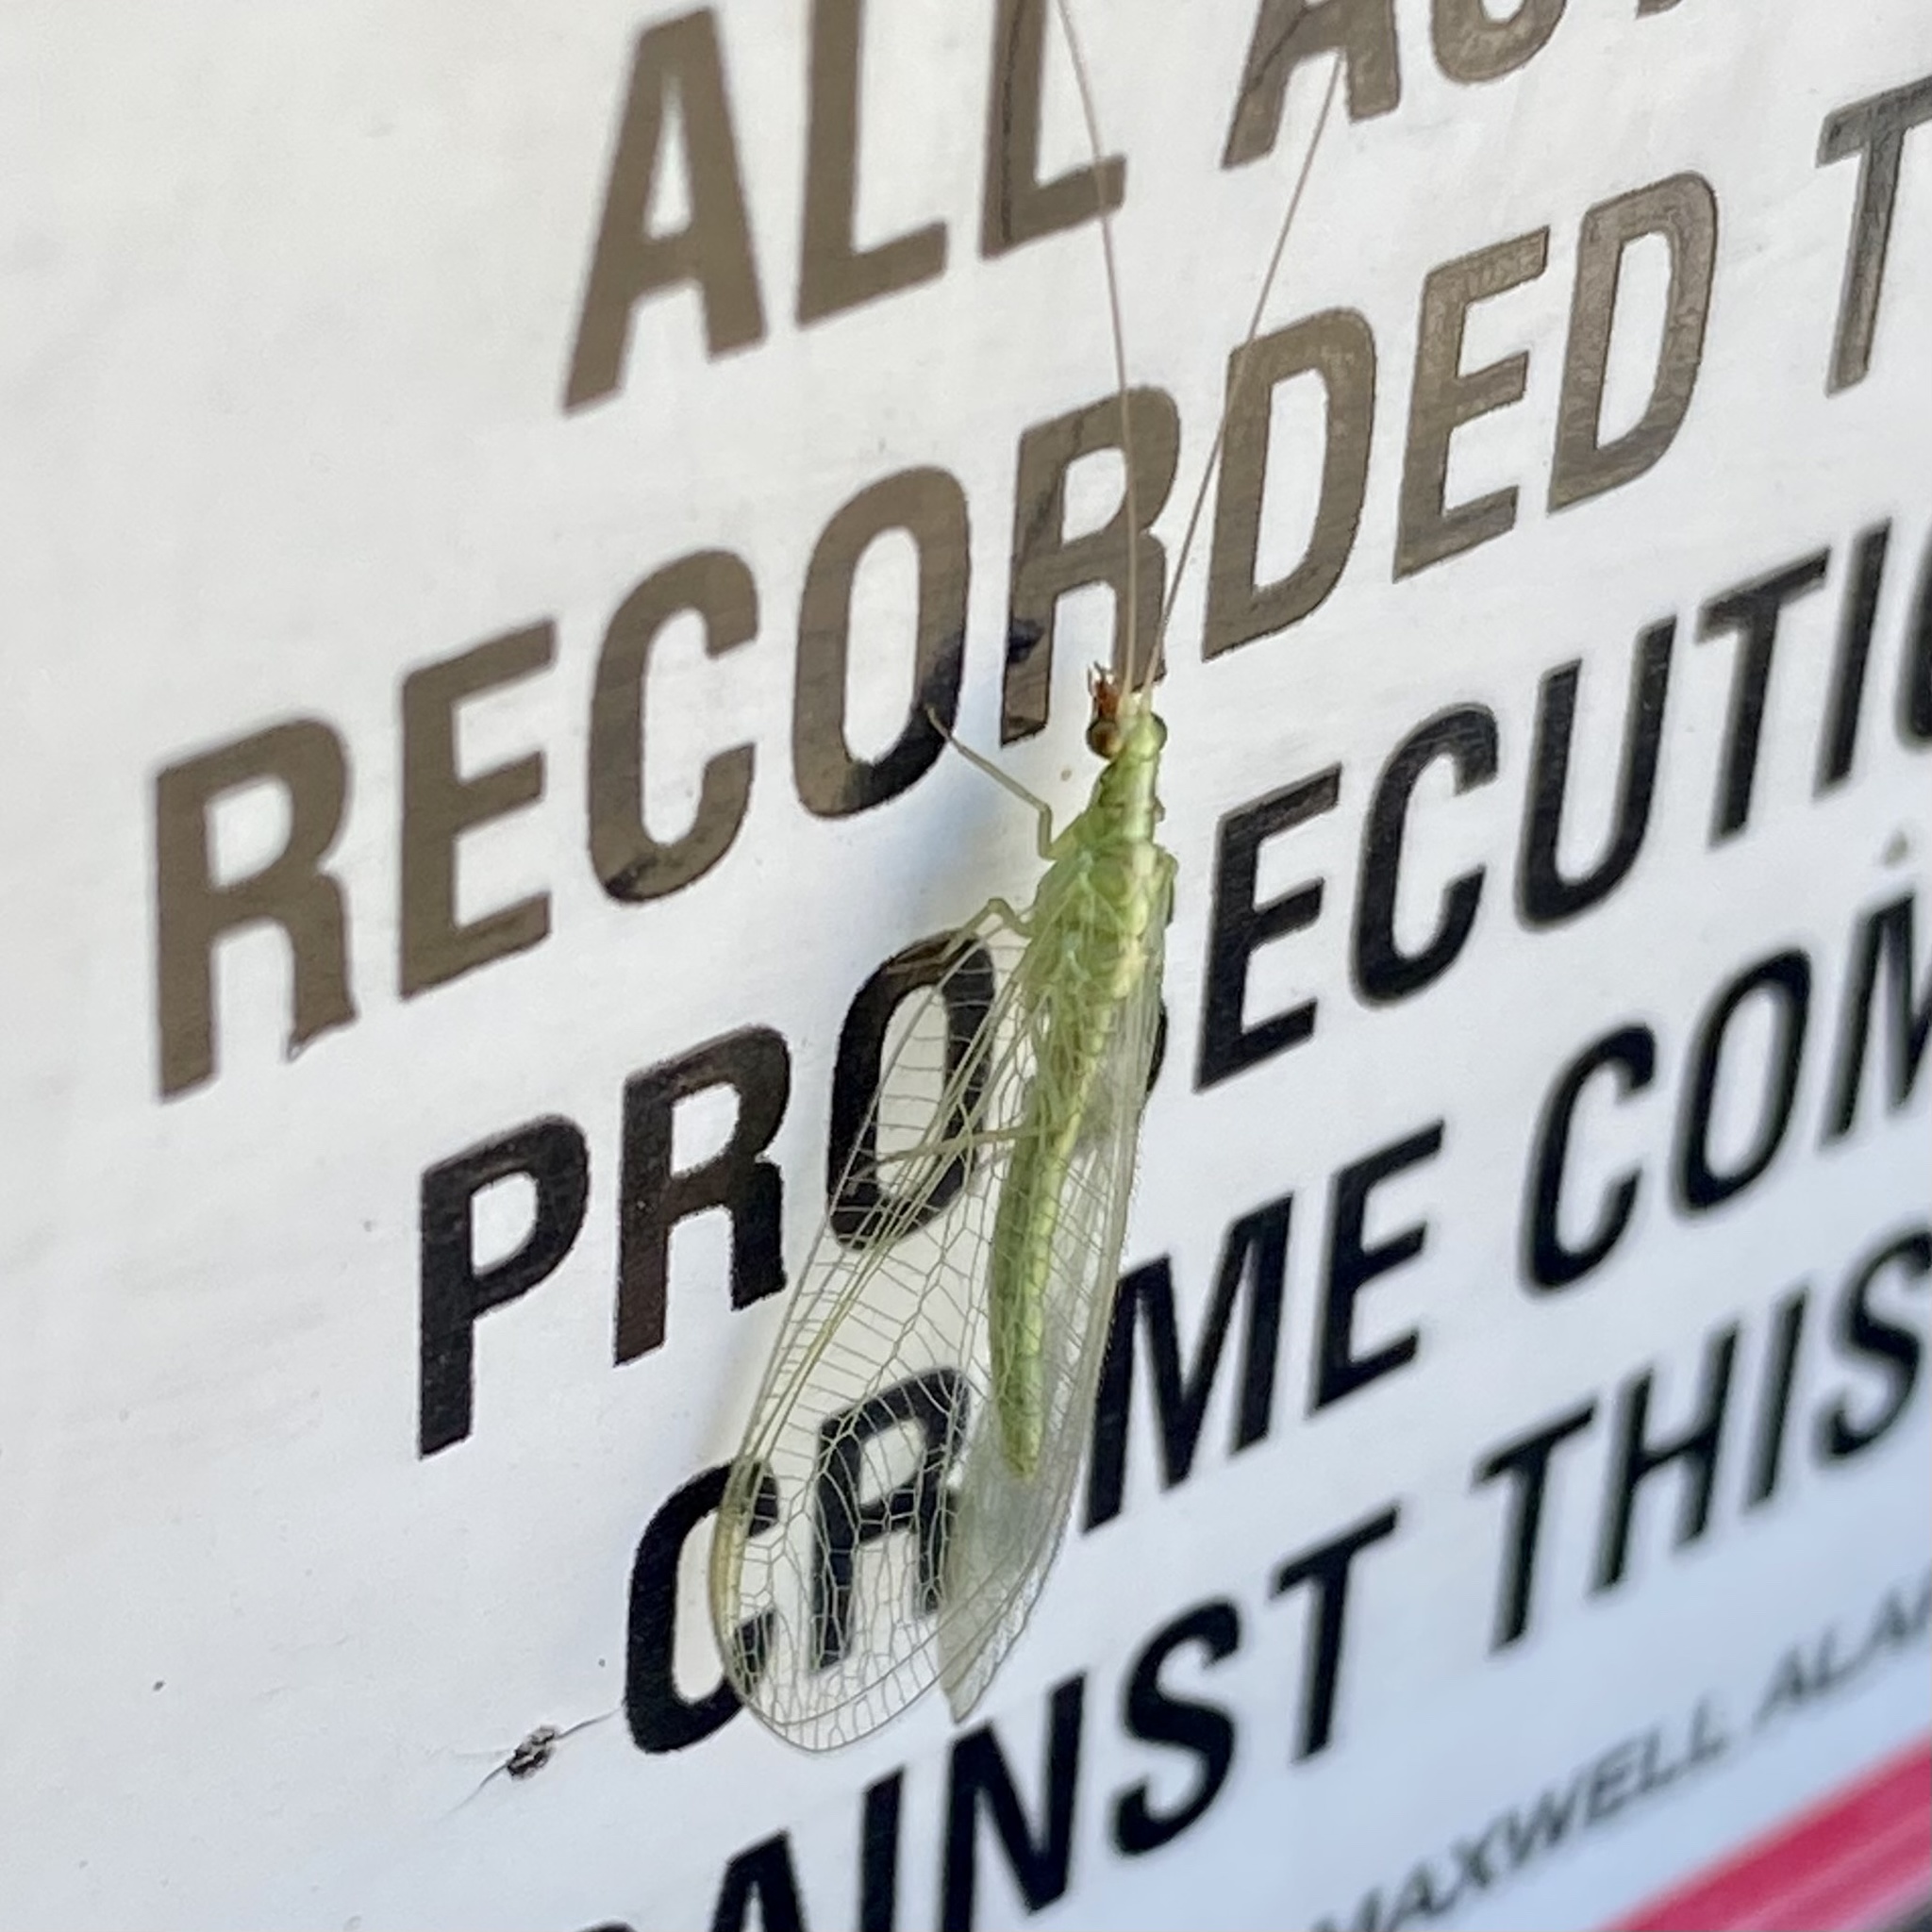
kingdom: Animalia
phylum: Arthropoda
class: Insecta
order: Neuroptera
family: Chrysopidae
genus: Chrysoperla
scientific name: Chrysoperla
